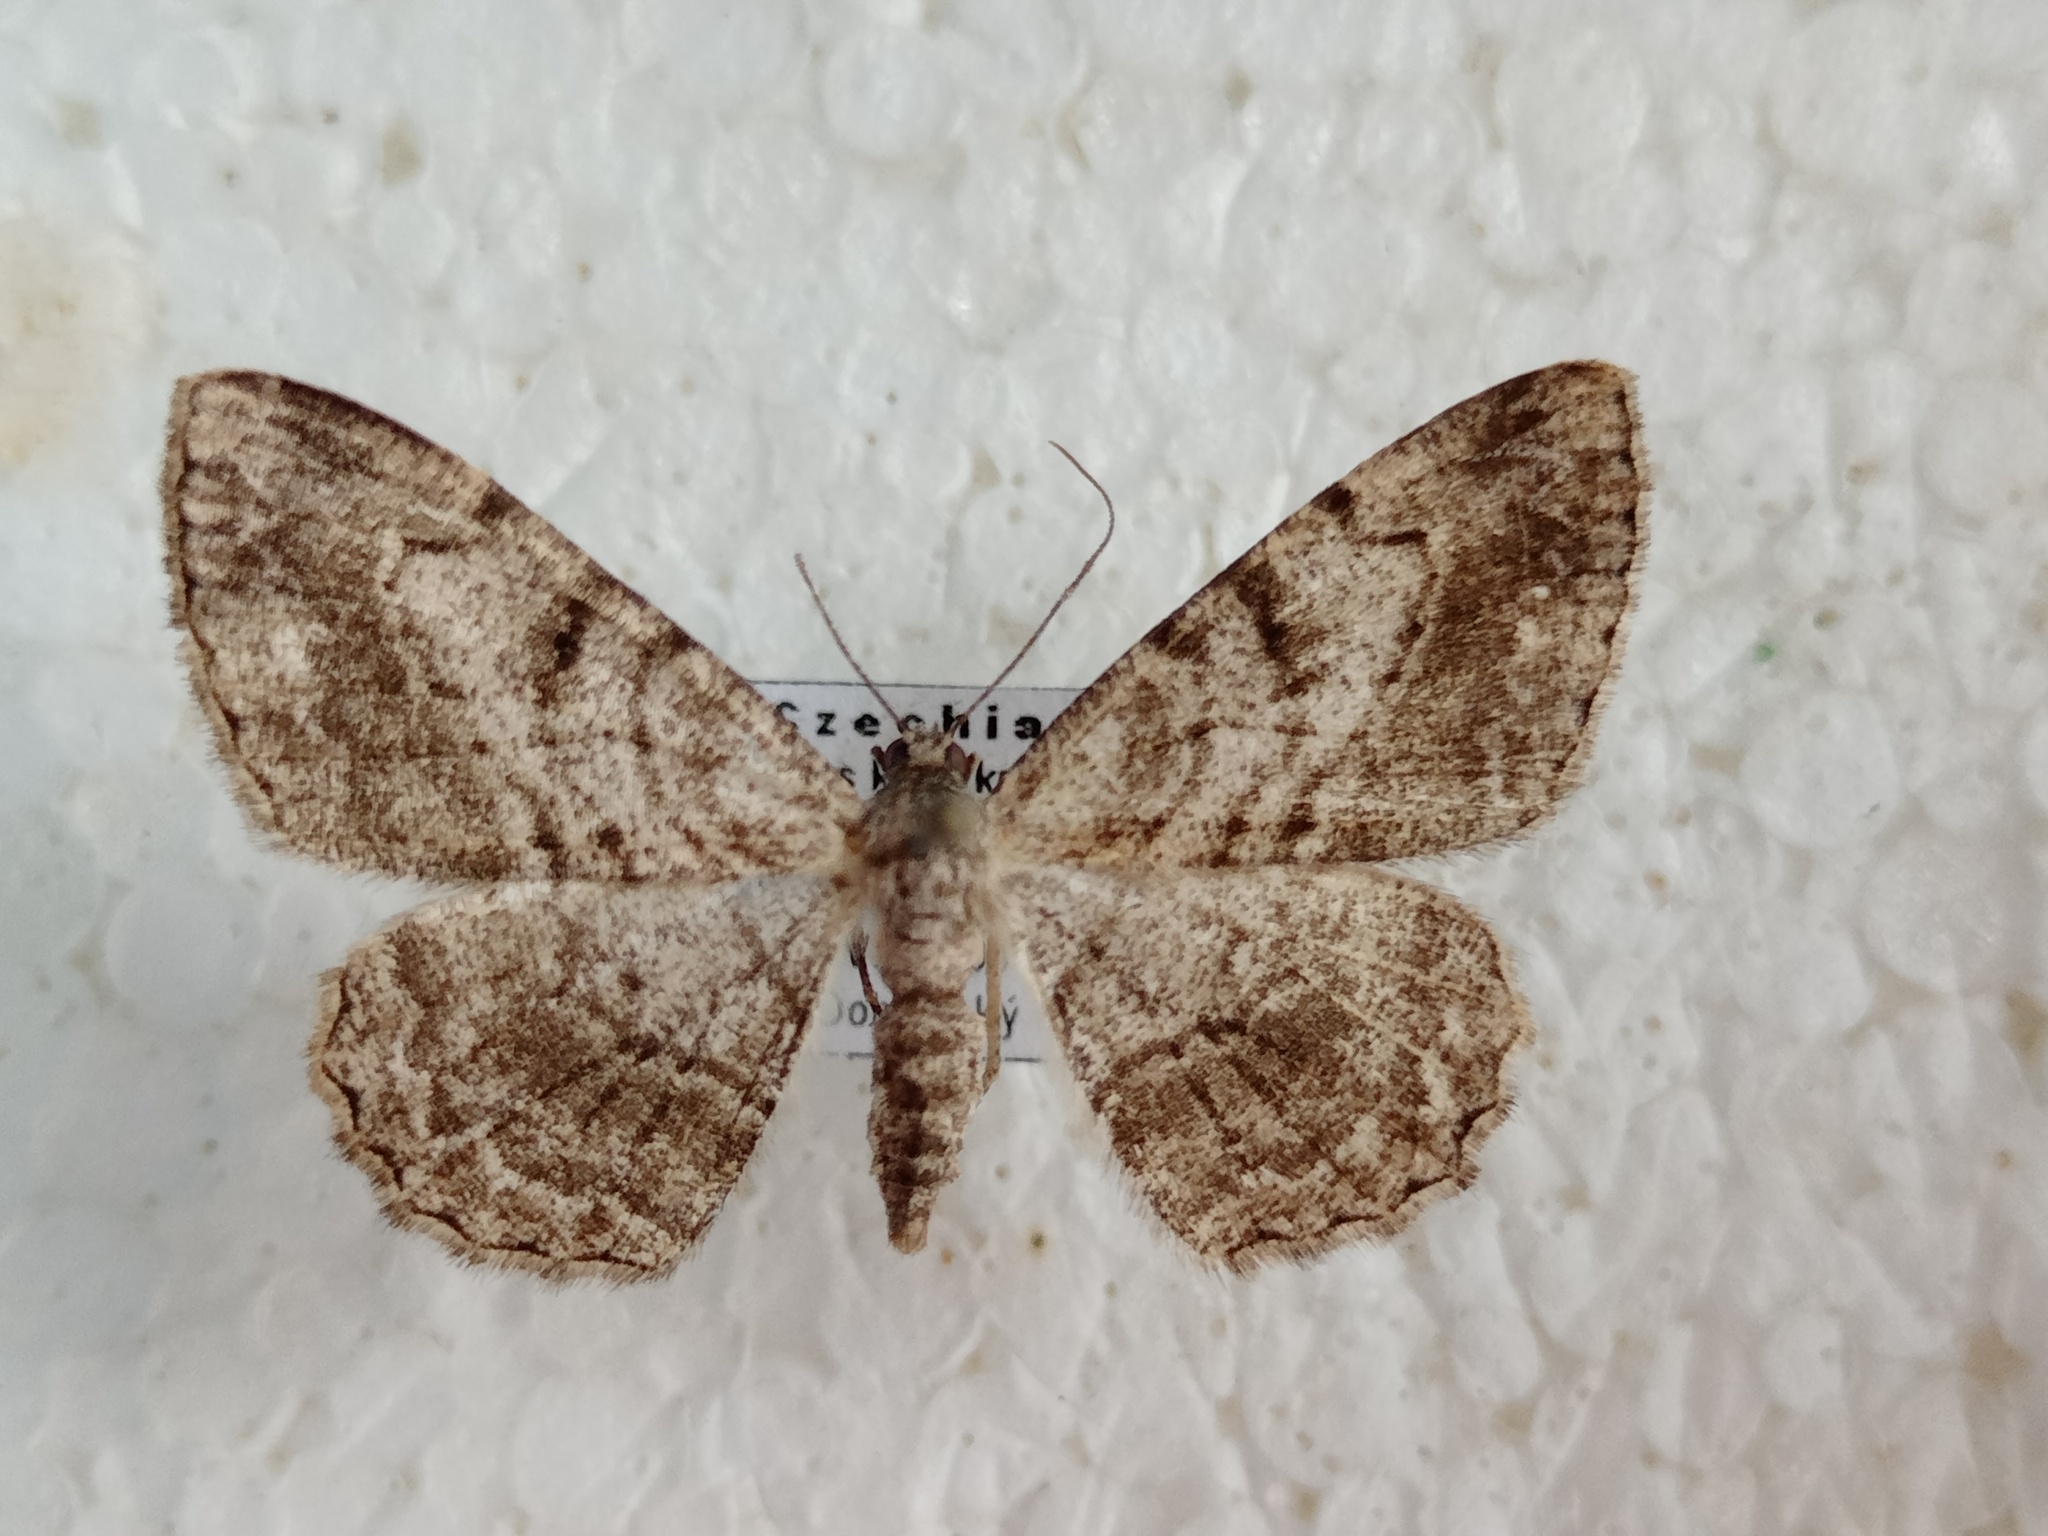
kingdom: Animalia
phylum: Arthropoda
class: Insecta
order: Lepidoptera
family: Geometridae
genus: Peribatodes
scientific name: Peribatodes rhomboidaria
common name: Willow beauty
